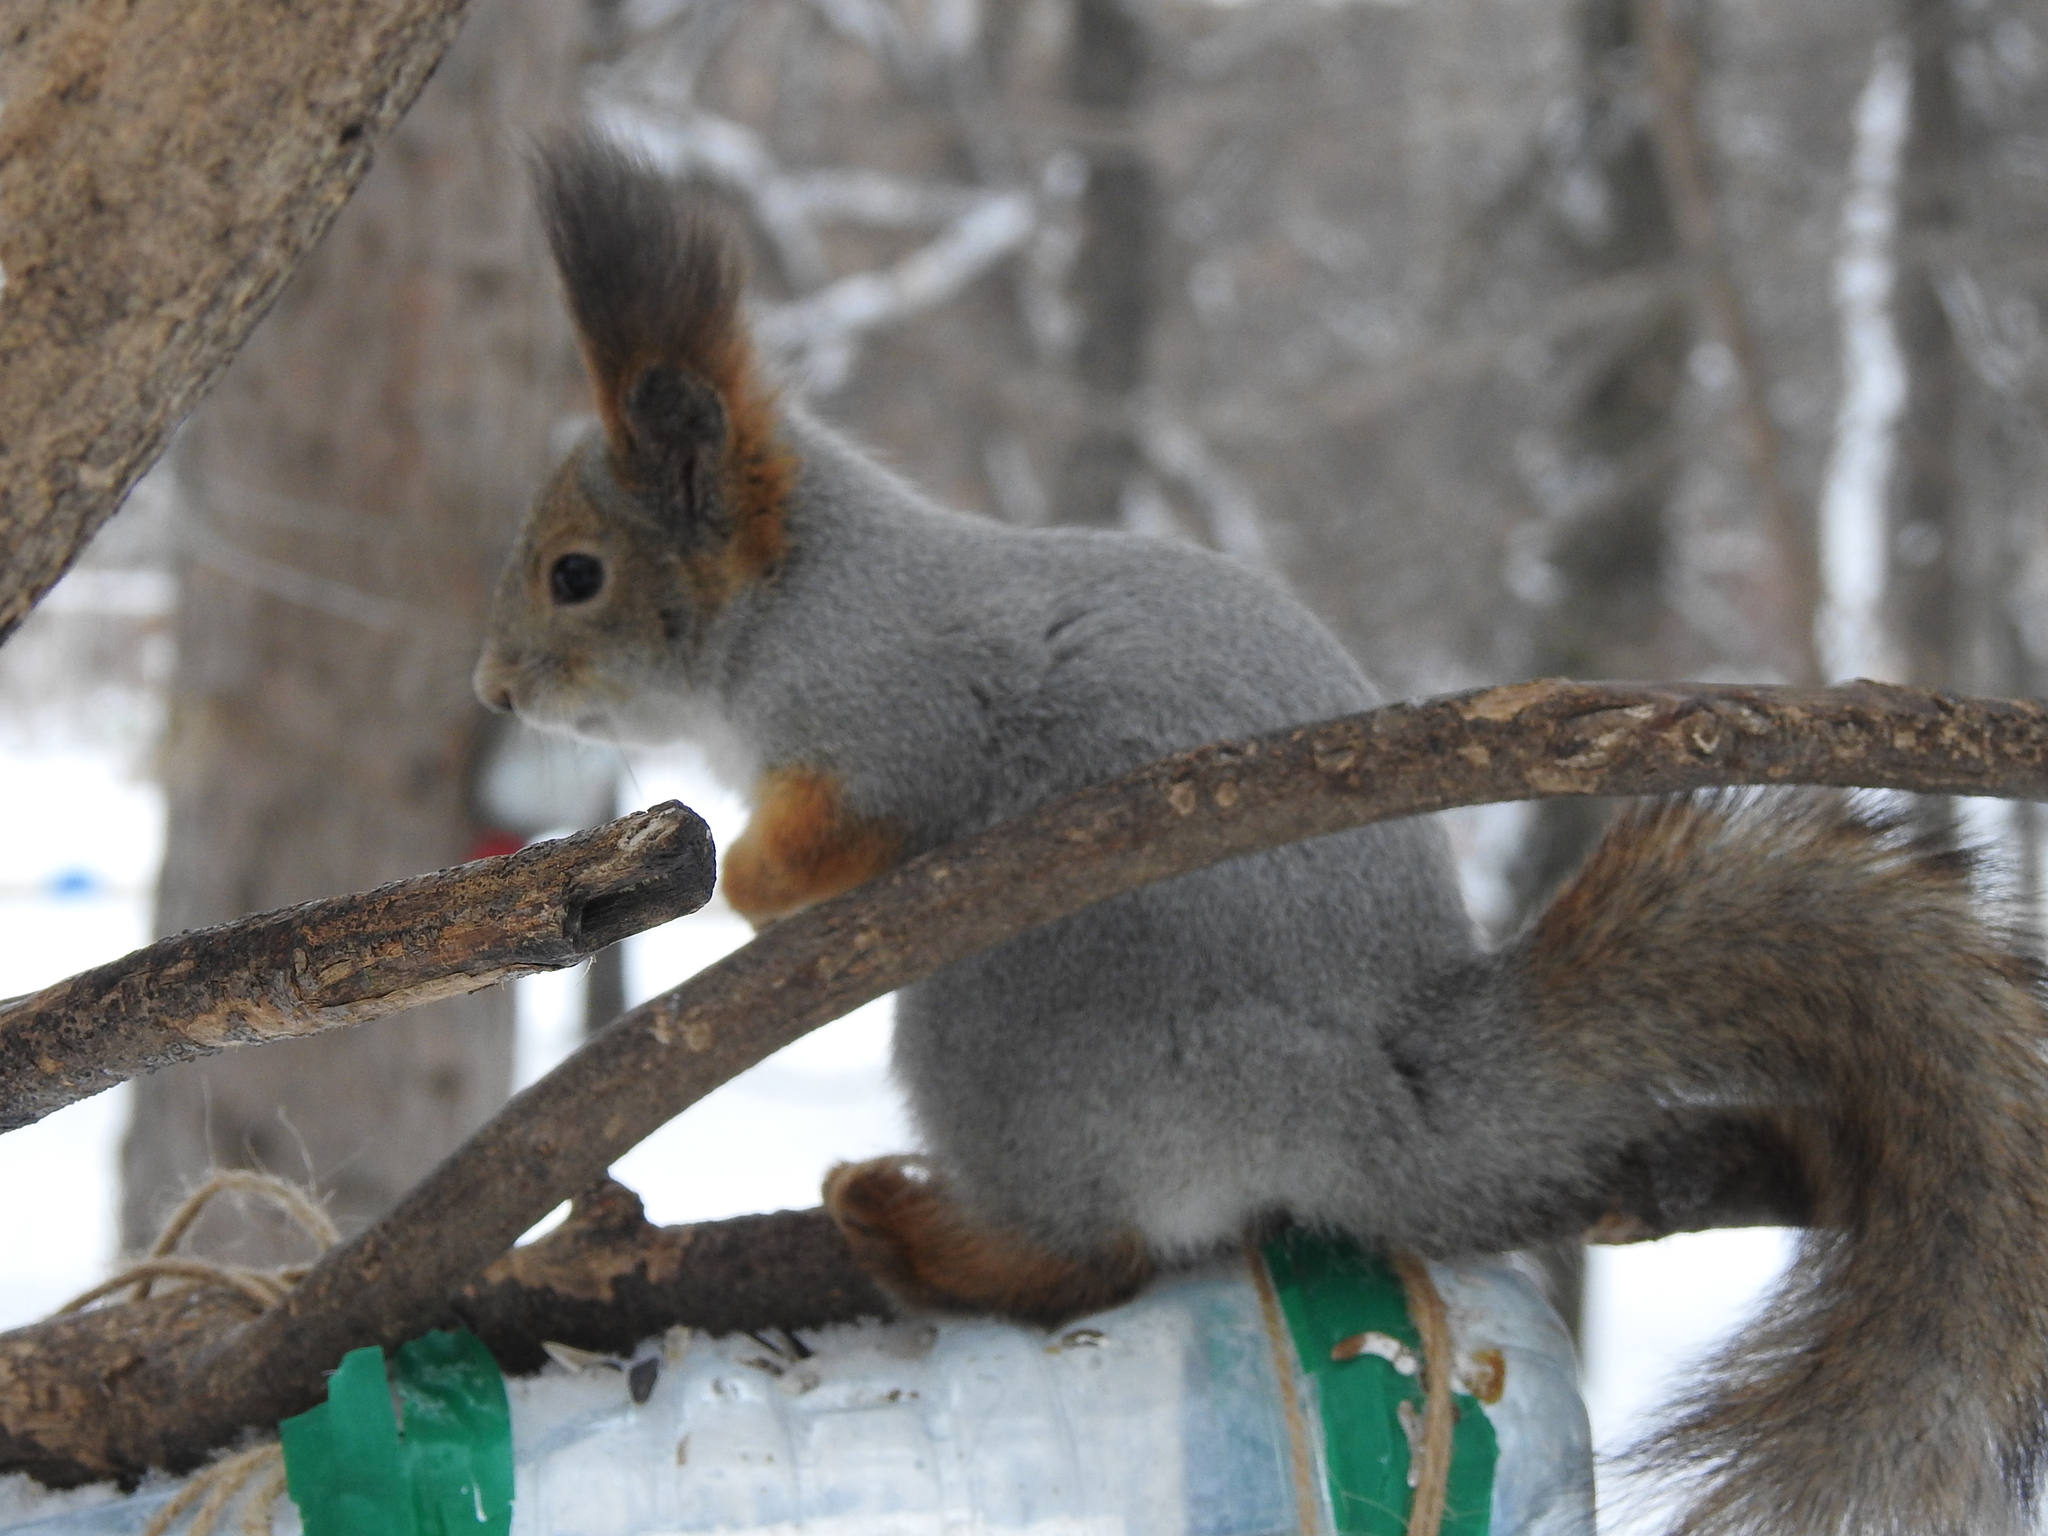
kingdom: Animalia
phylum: Chordata
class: Mammalia
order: Rodentia
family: Sciuridae
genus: Sciurus
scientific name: Sciurus vulgaris
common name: Eurasian red squirrel
